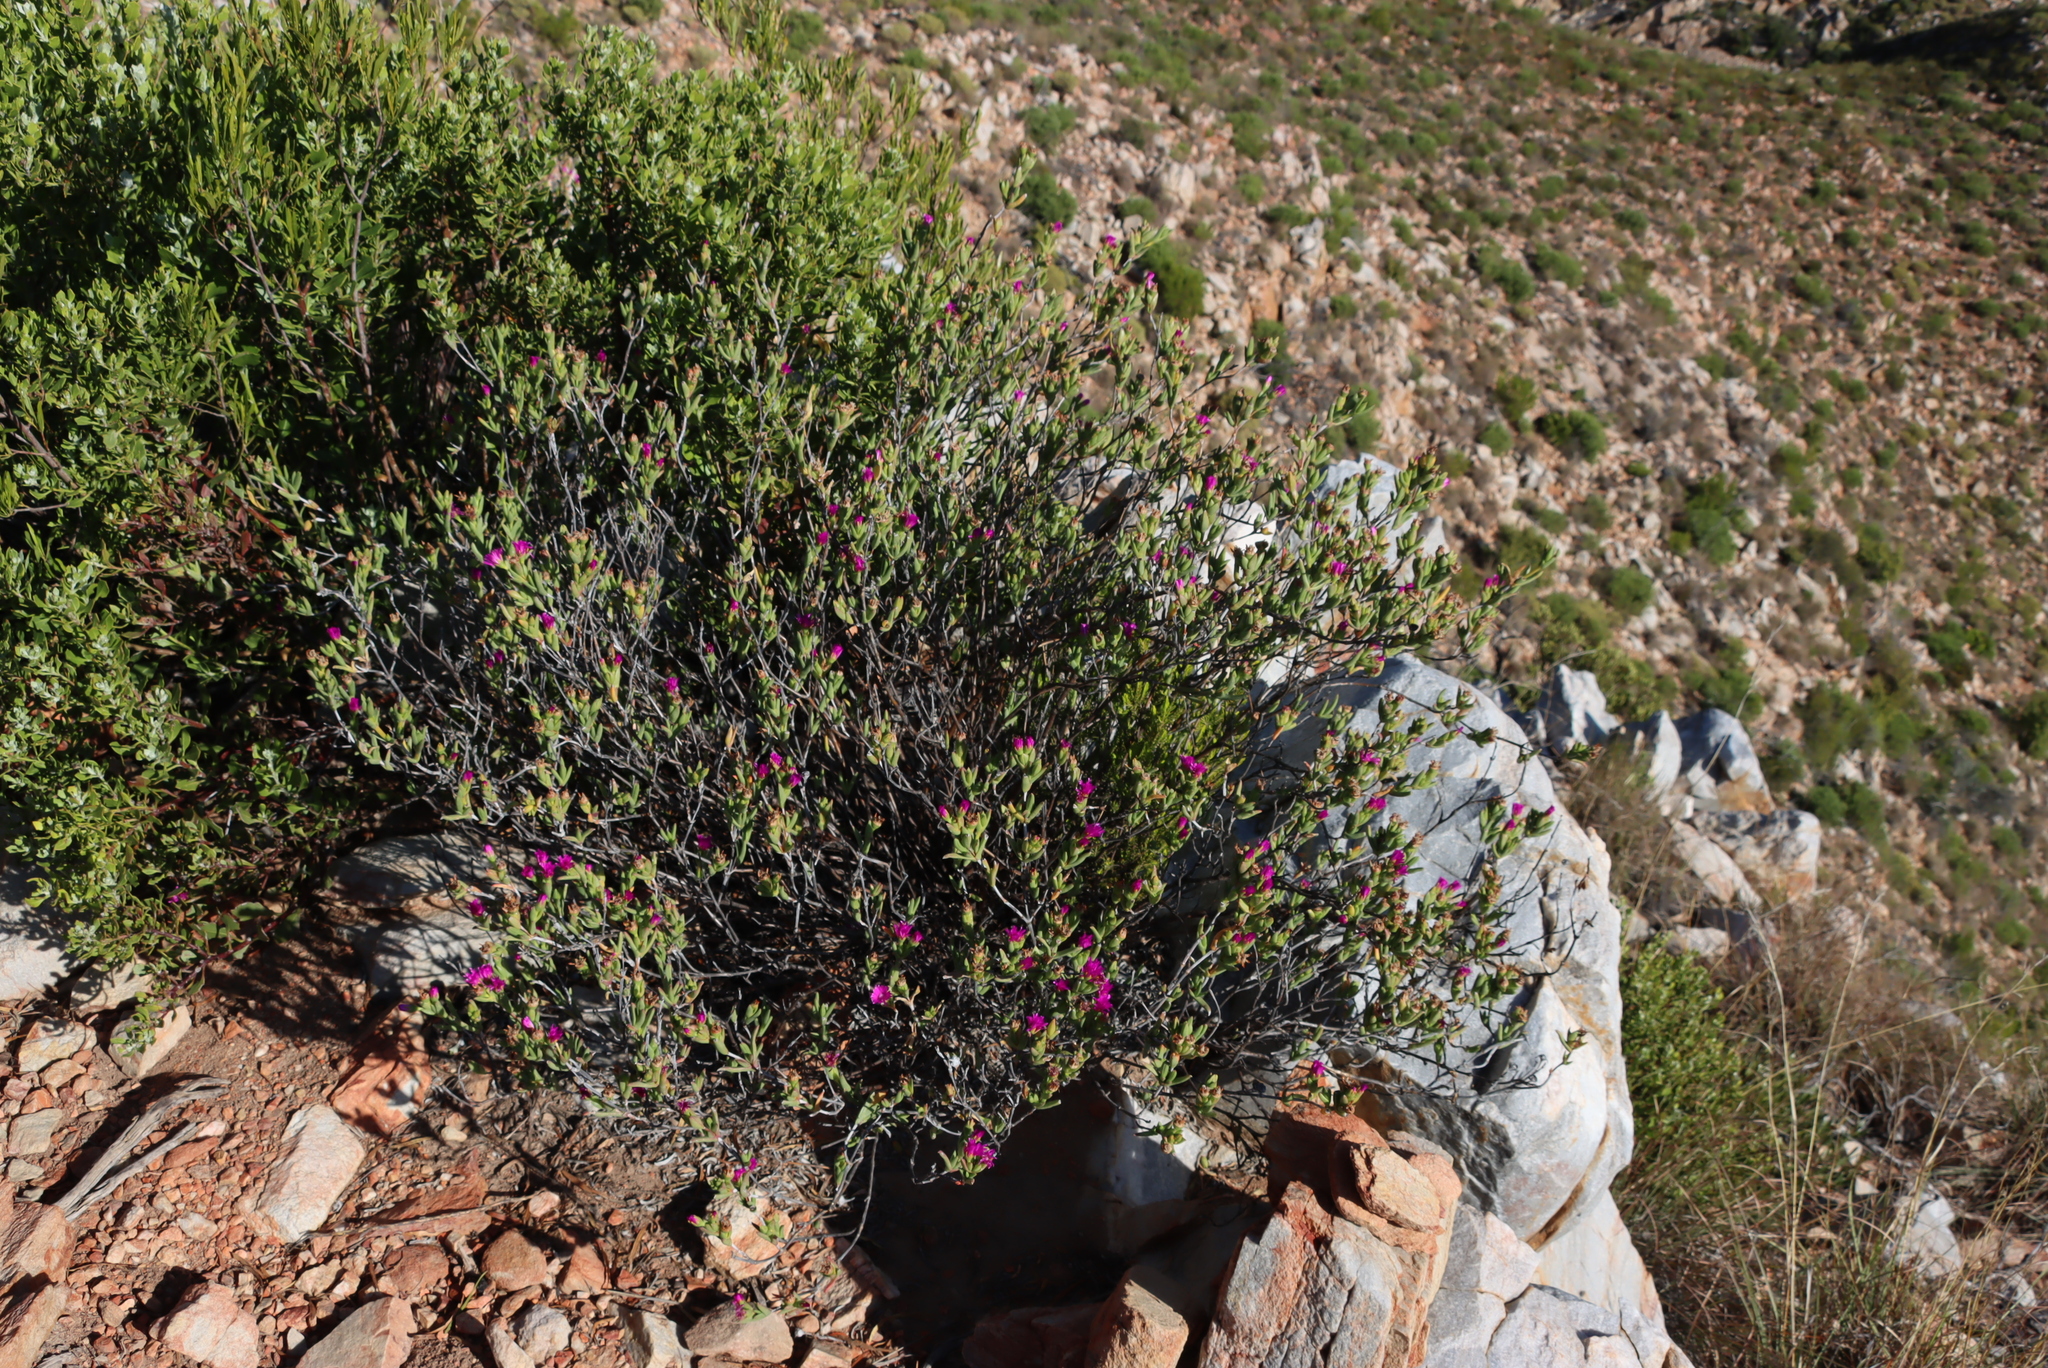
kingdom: Plantae
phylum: Tracheophyta
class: Magnoliopsida
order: Caryophyllales
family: Aizoaceae
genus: Esterhuysenia
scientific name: Esterhuysenia knysnana
